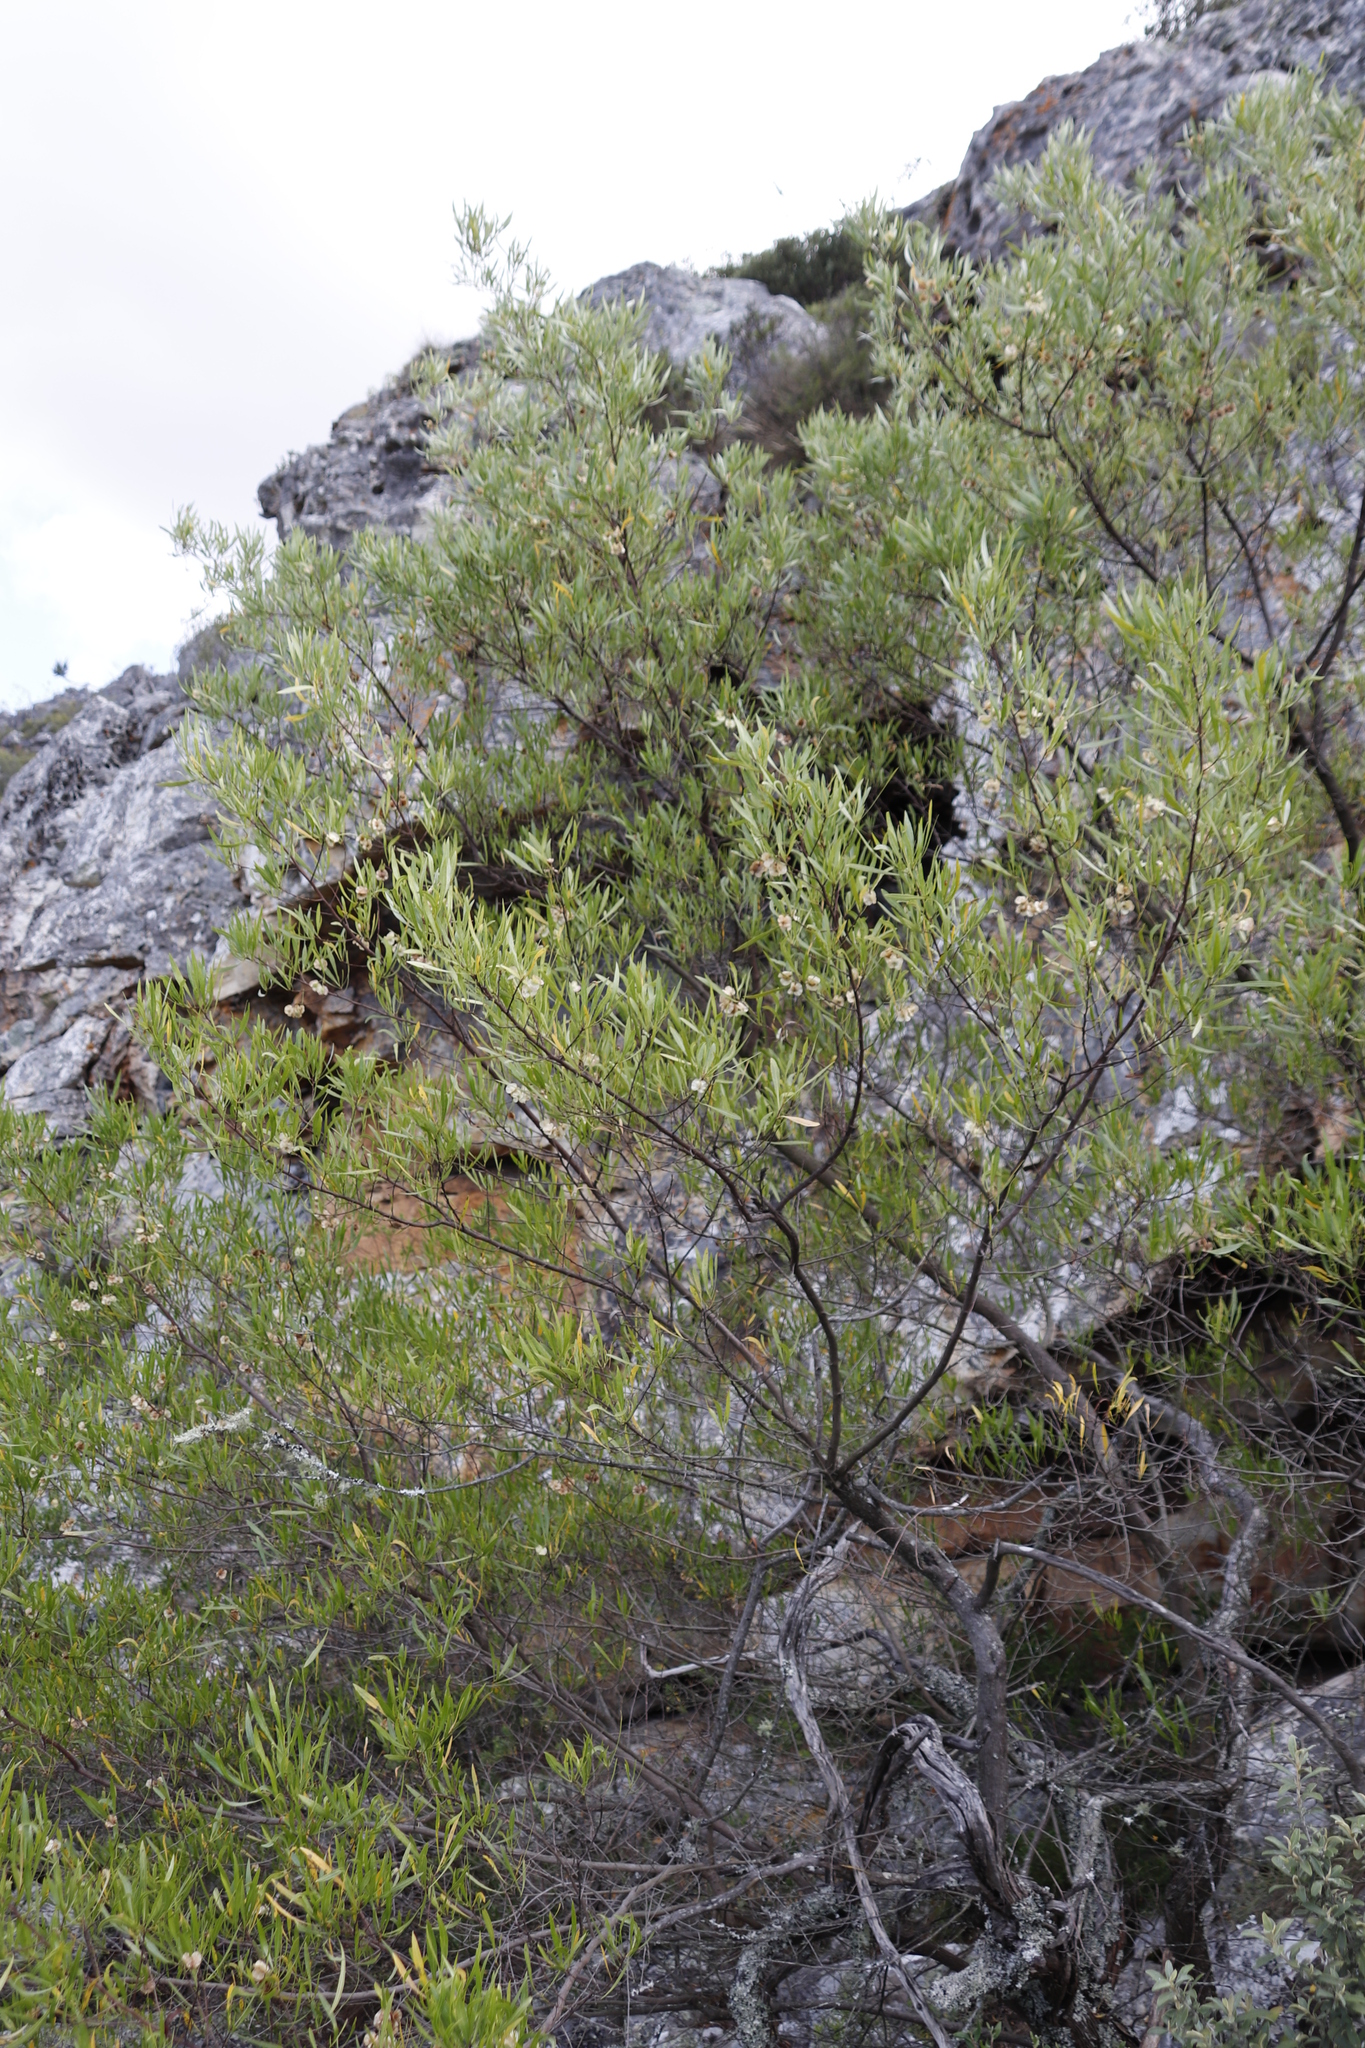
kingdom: Plantae
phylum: Tracheophyta
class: Magnoliopsida
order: Sapindales
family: Sapindaceae
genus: Dodonaea
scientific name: Dodonaea viscosa
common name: Hopbush
